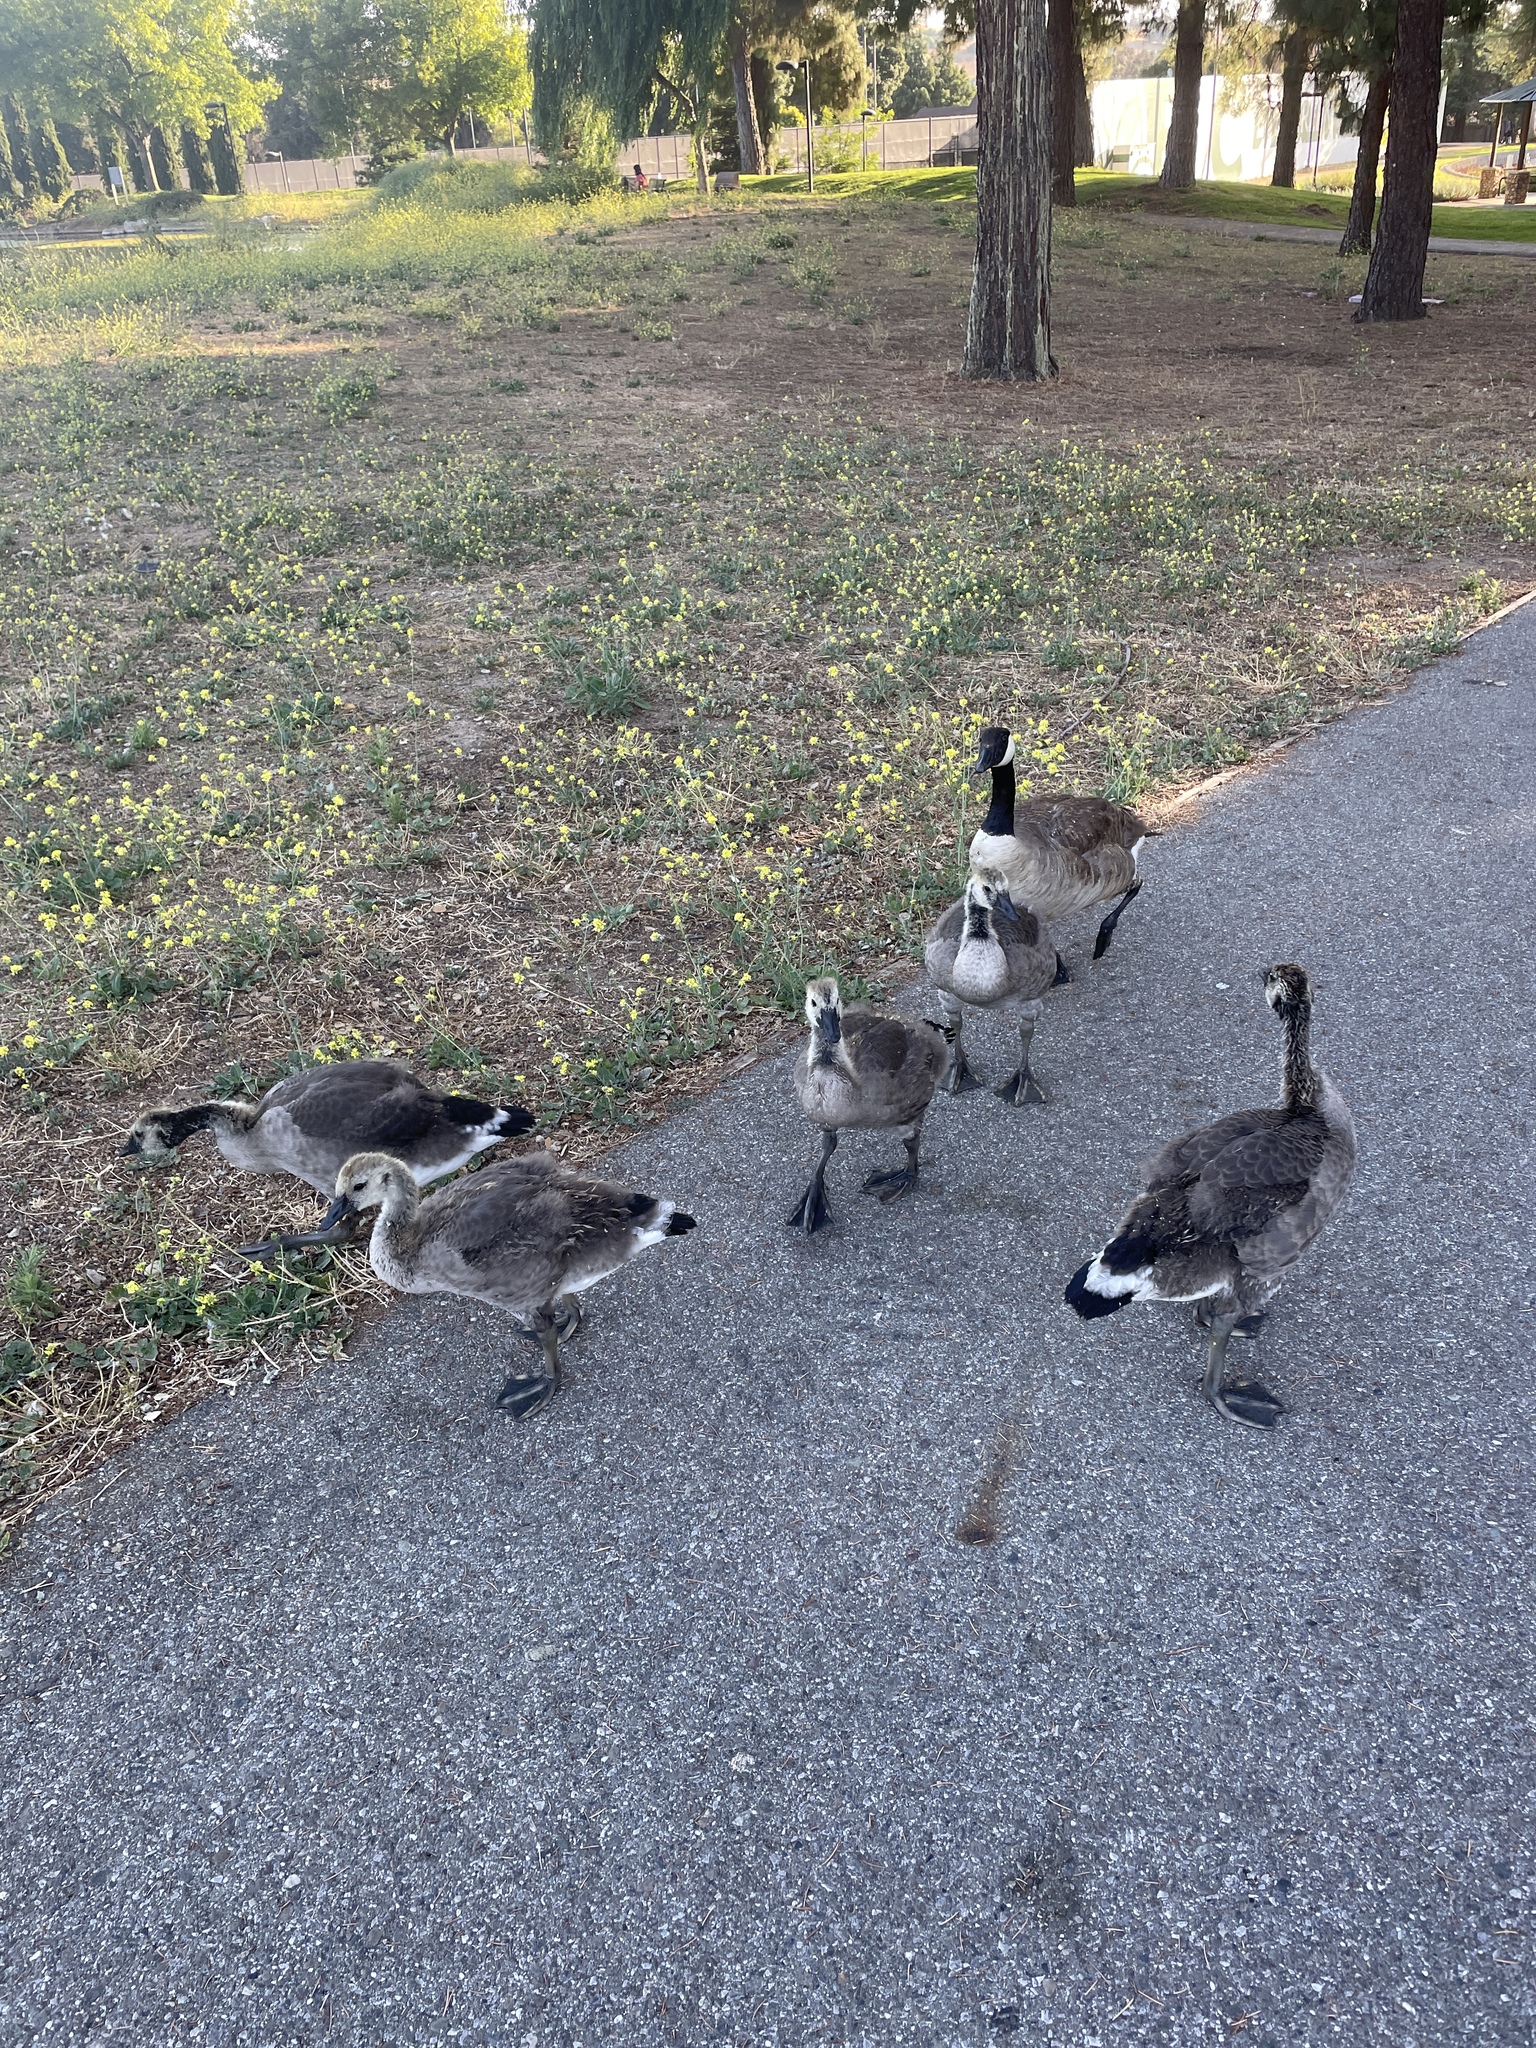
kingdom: Animalia
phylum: Chordata
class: Aves
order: Anseriformes
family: Anatidae
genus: Branta
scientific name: Branta canadensis
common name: Canada goose
